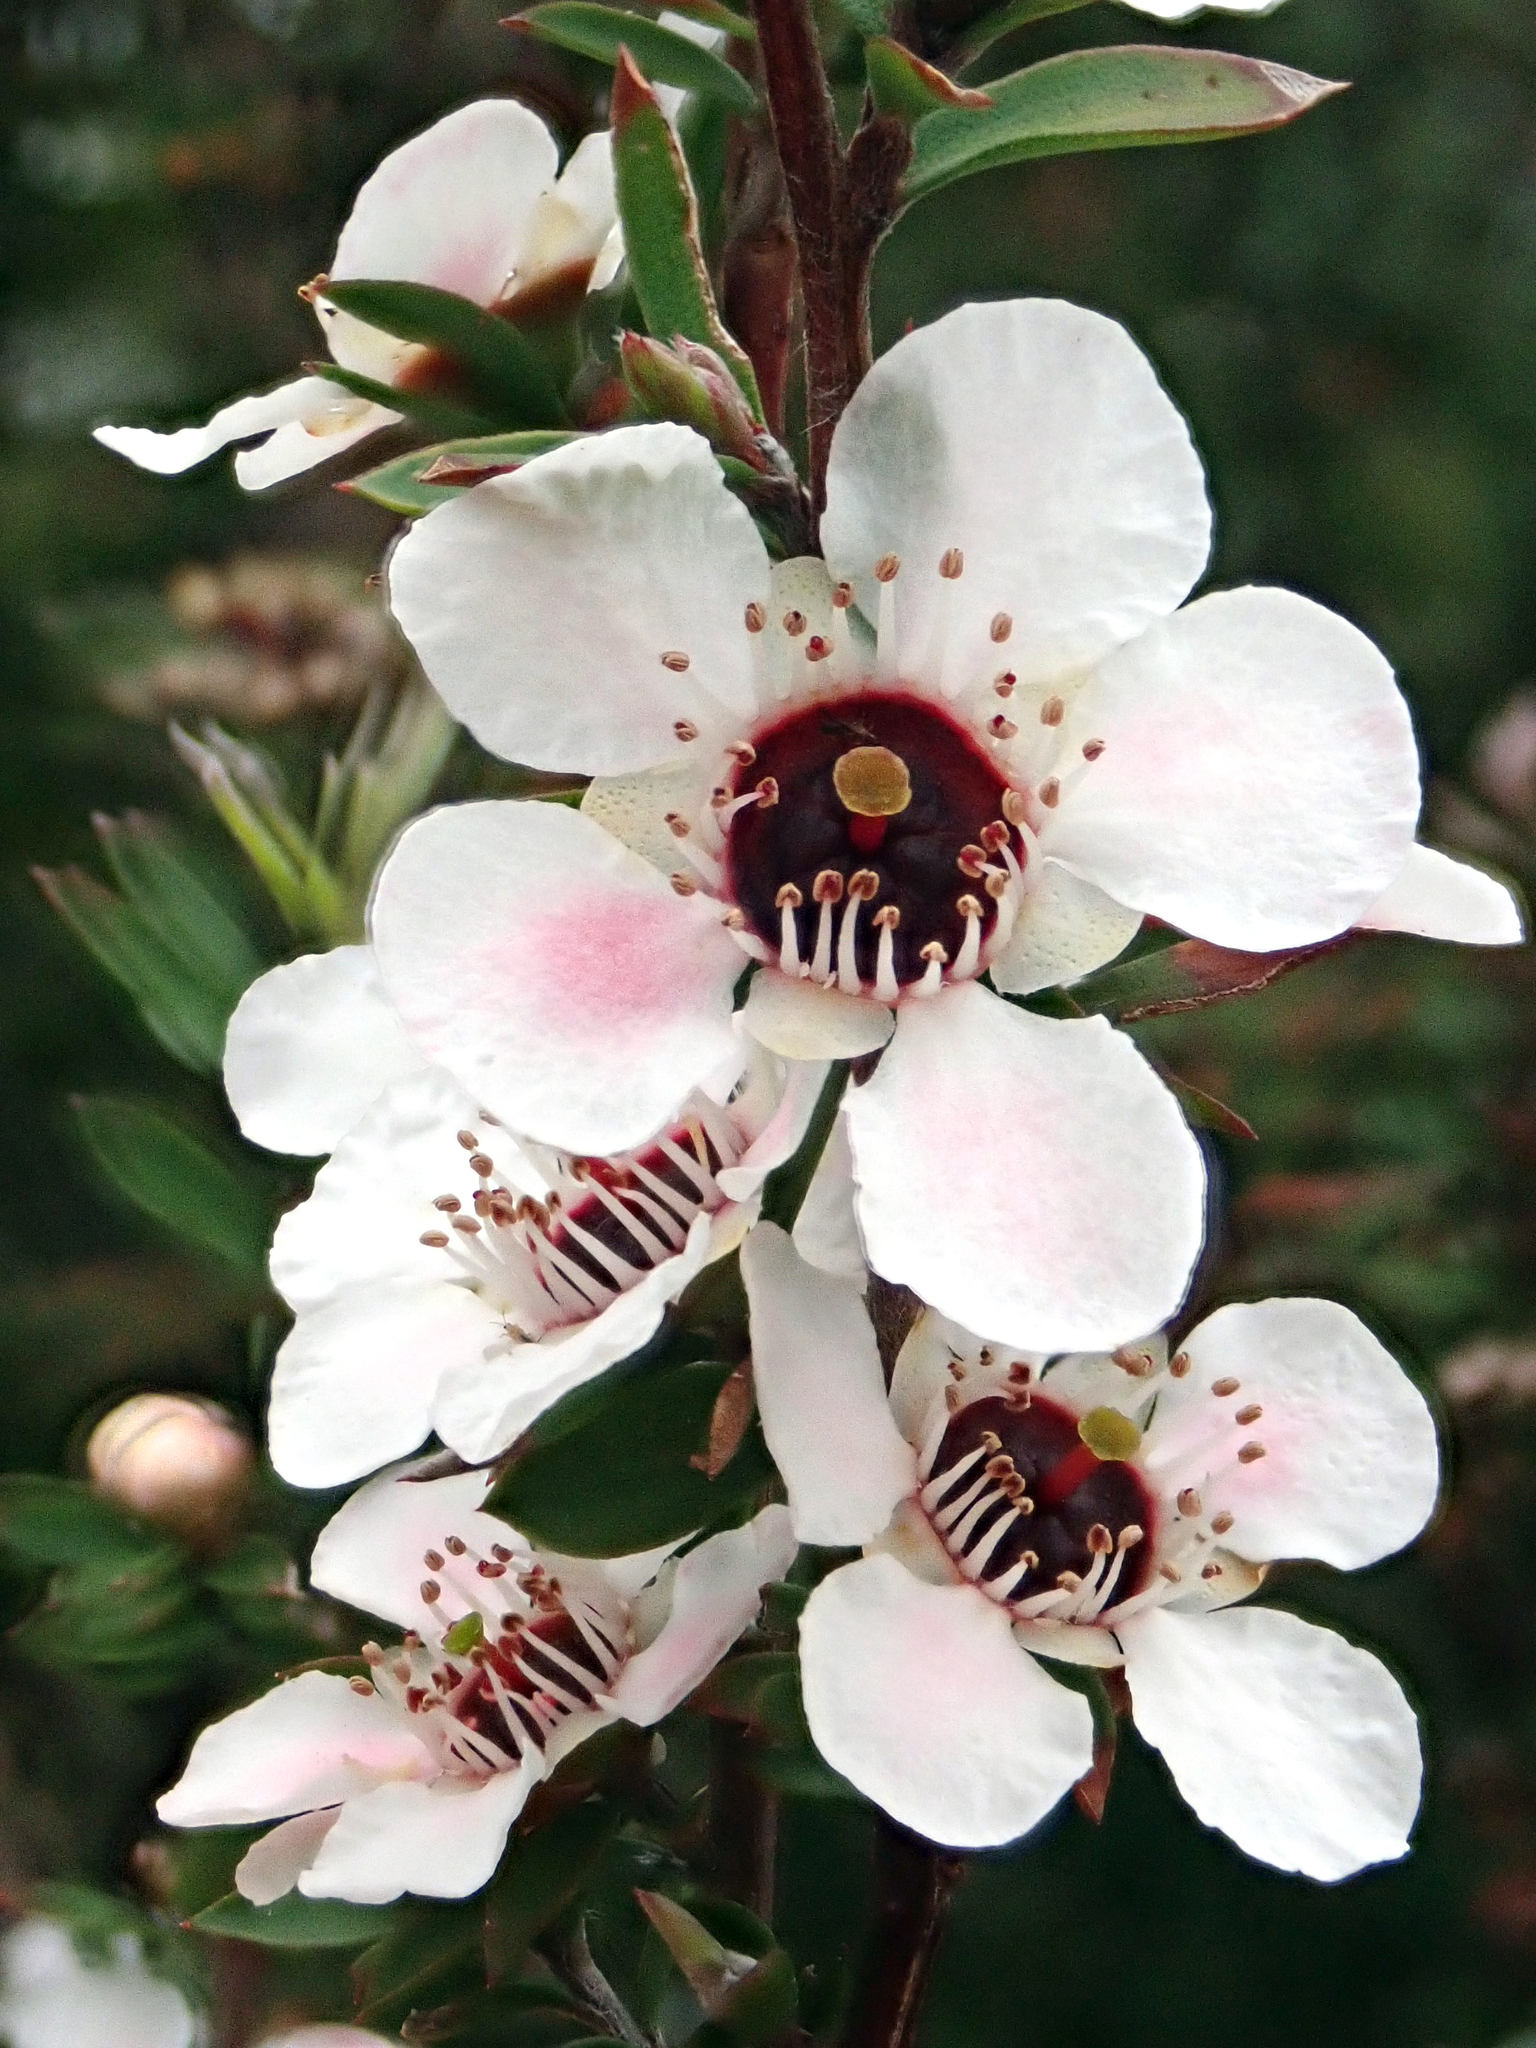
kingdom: Plantae
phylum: Tracheophyta
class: Magnoliopsida
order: Myrtales
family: Myrtaceae
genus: Leptospermum
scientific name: Leptospermum scoparium
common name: Broom tea-tree
